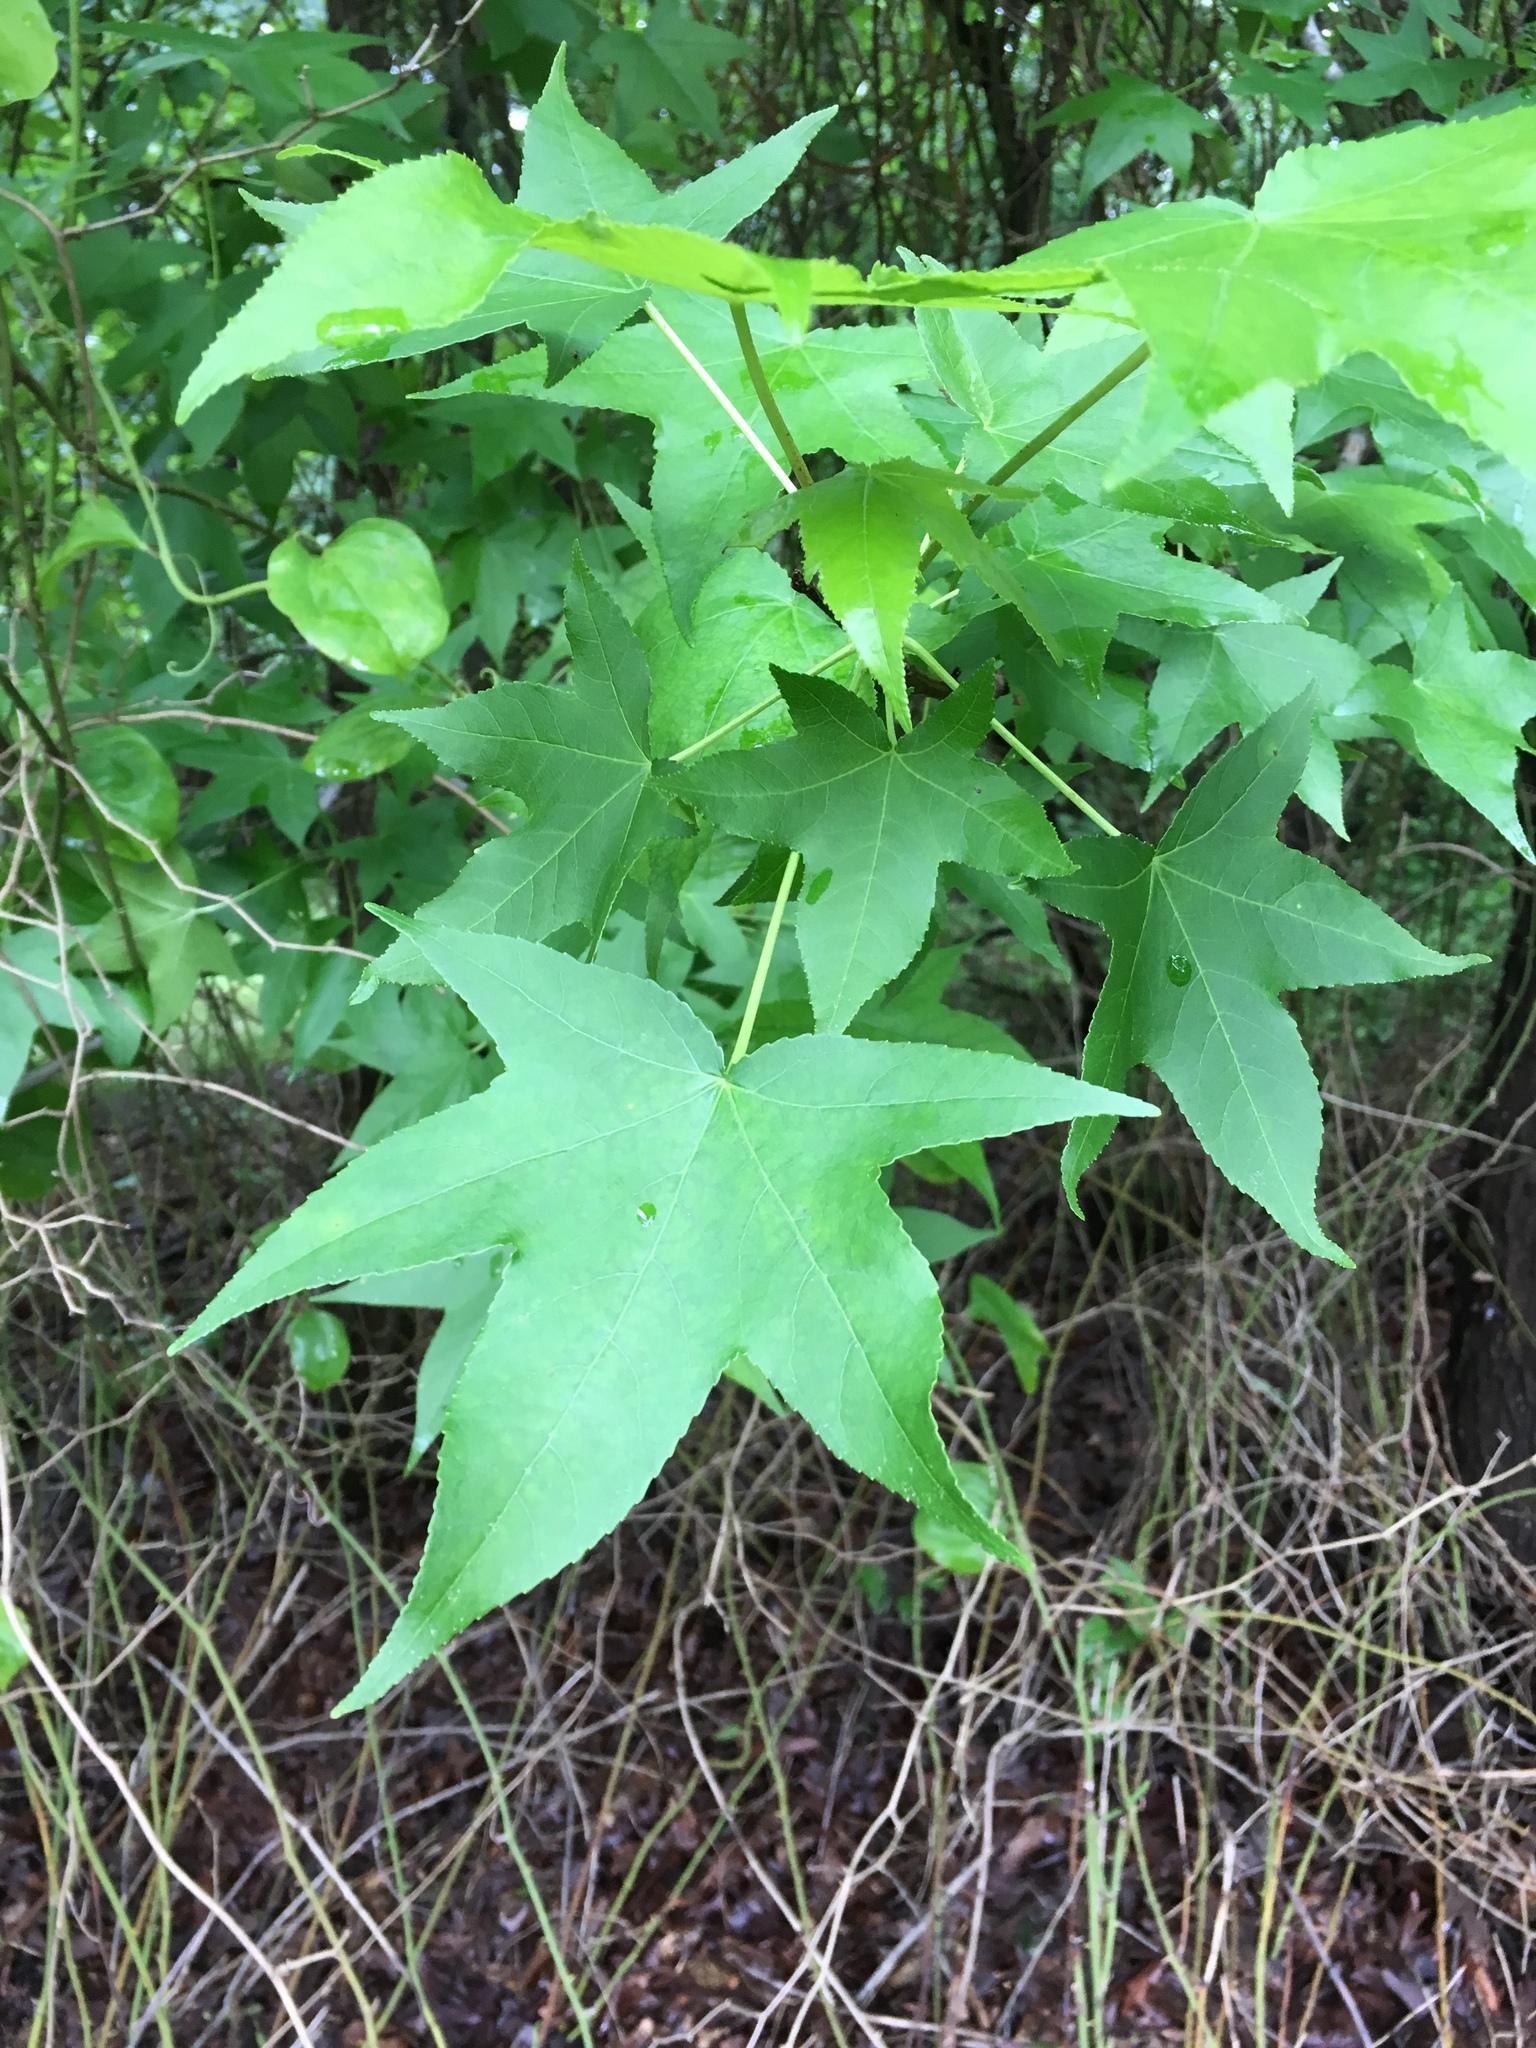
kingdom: Plantae
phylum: Tracheophyta
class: Magnoliopsida
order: Saxifragales
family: Altingiaceae
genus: Liquidambar
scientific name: Liquidambar styraciflua
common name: Sweet gum
